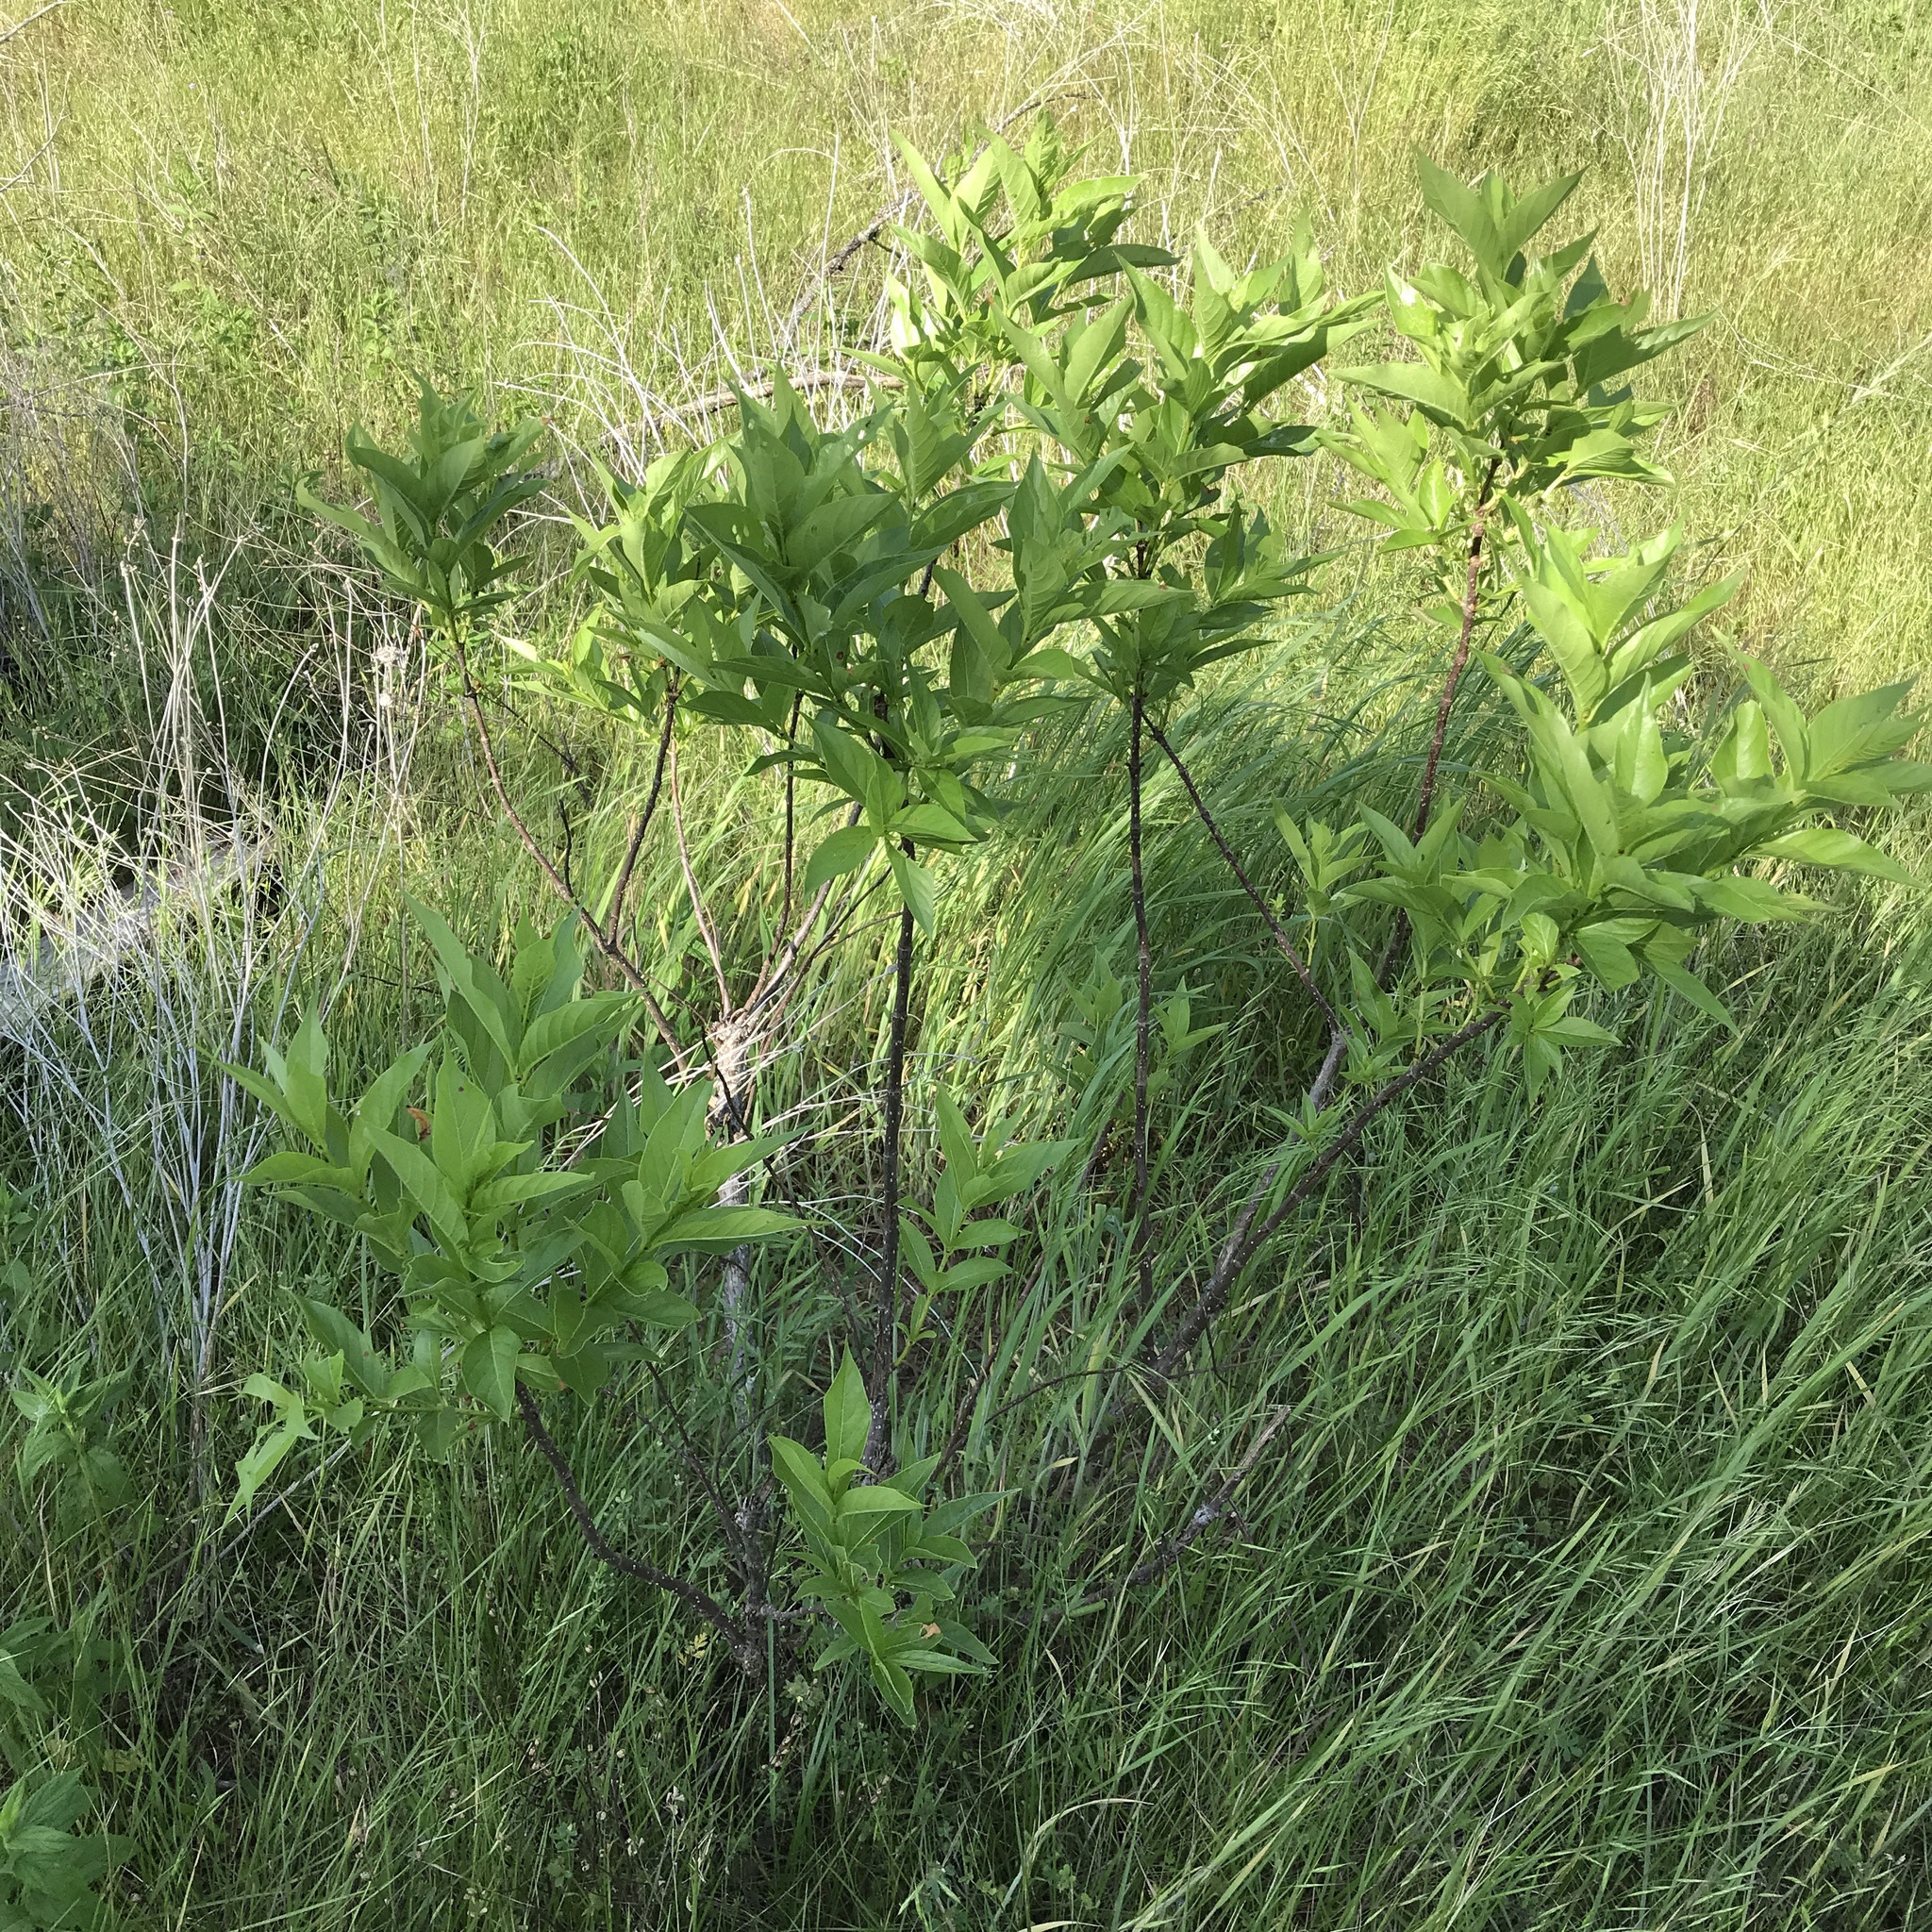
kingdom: Plantae
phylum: Tracheophyta
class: Magnoliopsida
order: Gentianales
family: Rubiaceae
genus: Cephalanthus
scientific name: Cephalanthus occidentalis
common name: Button-willow
